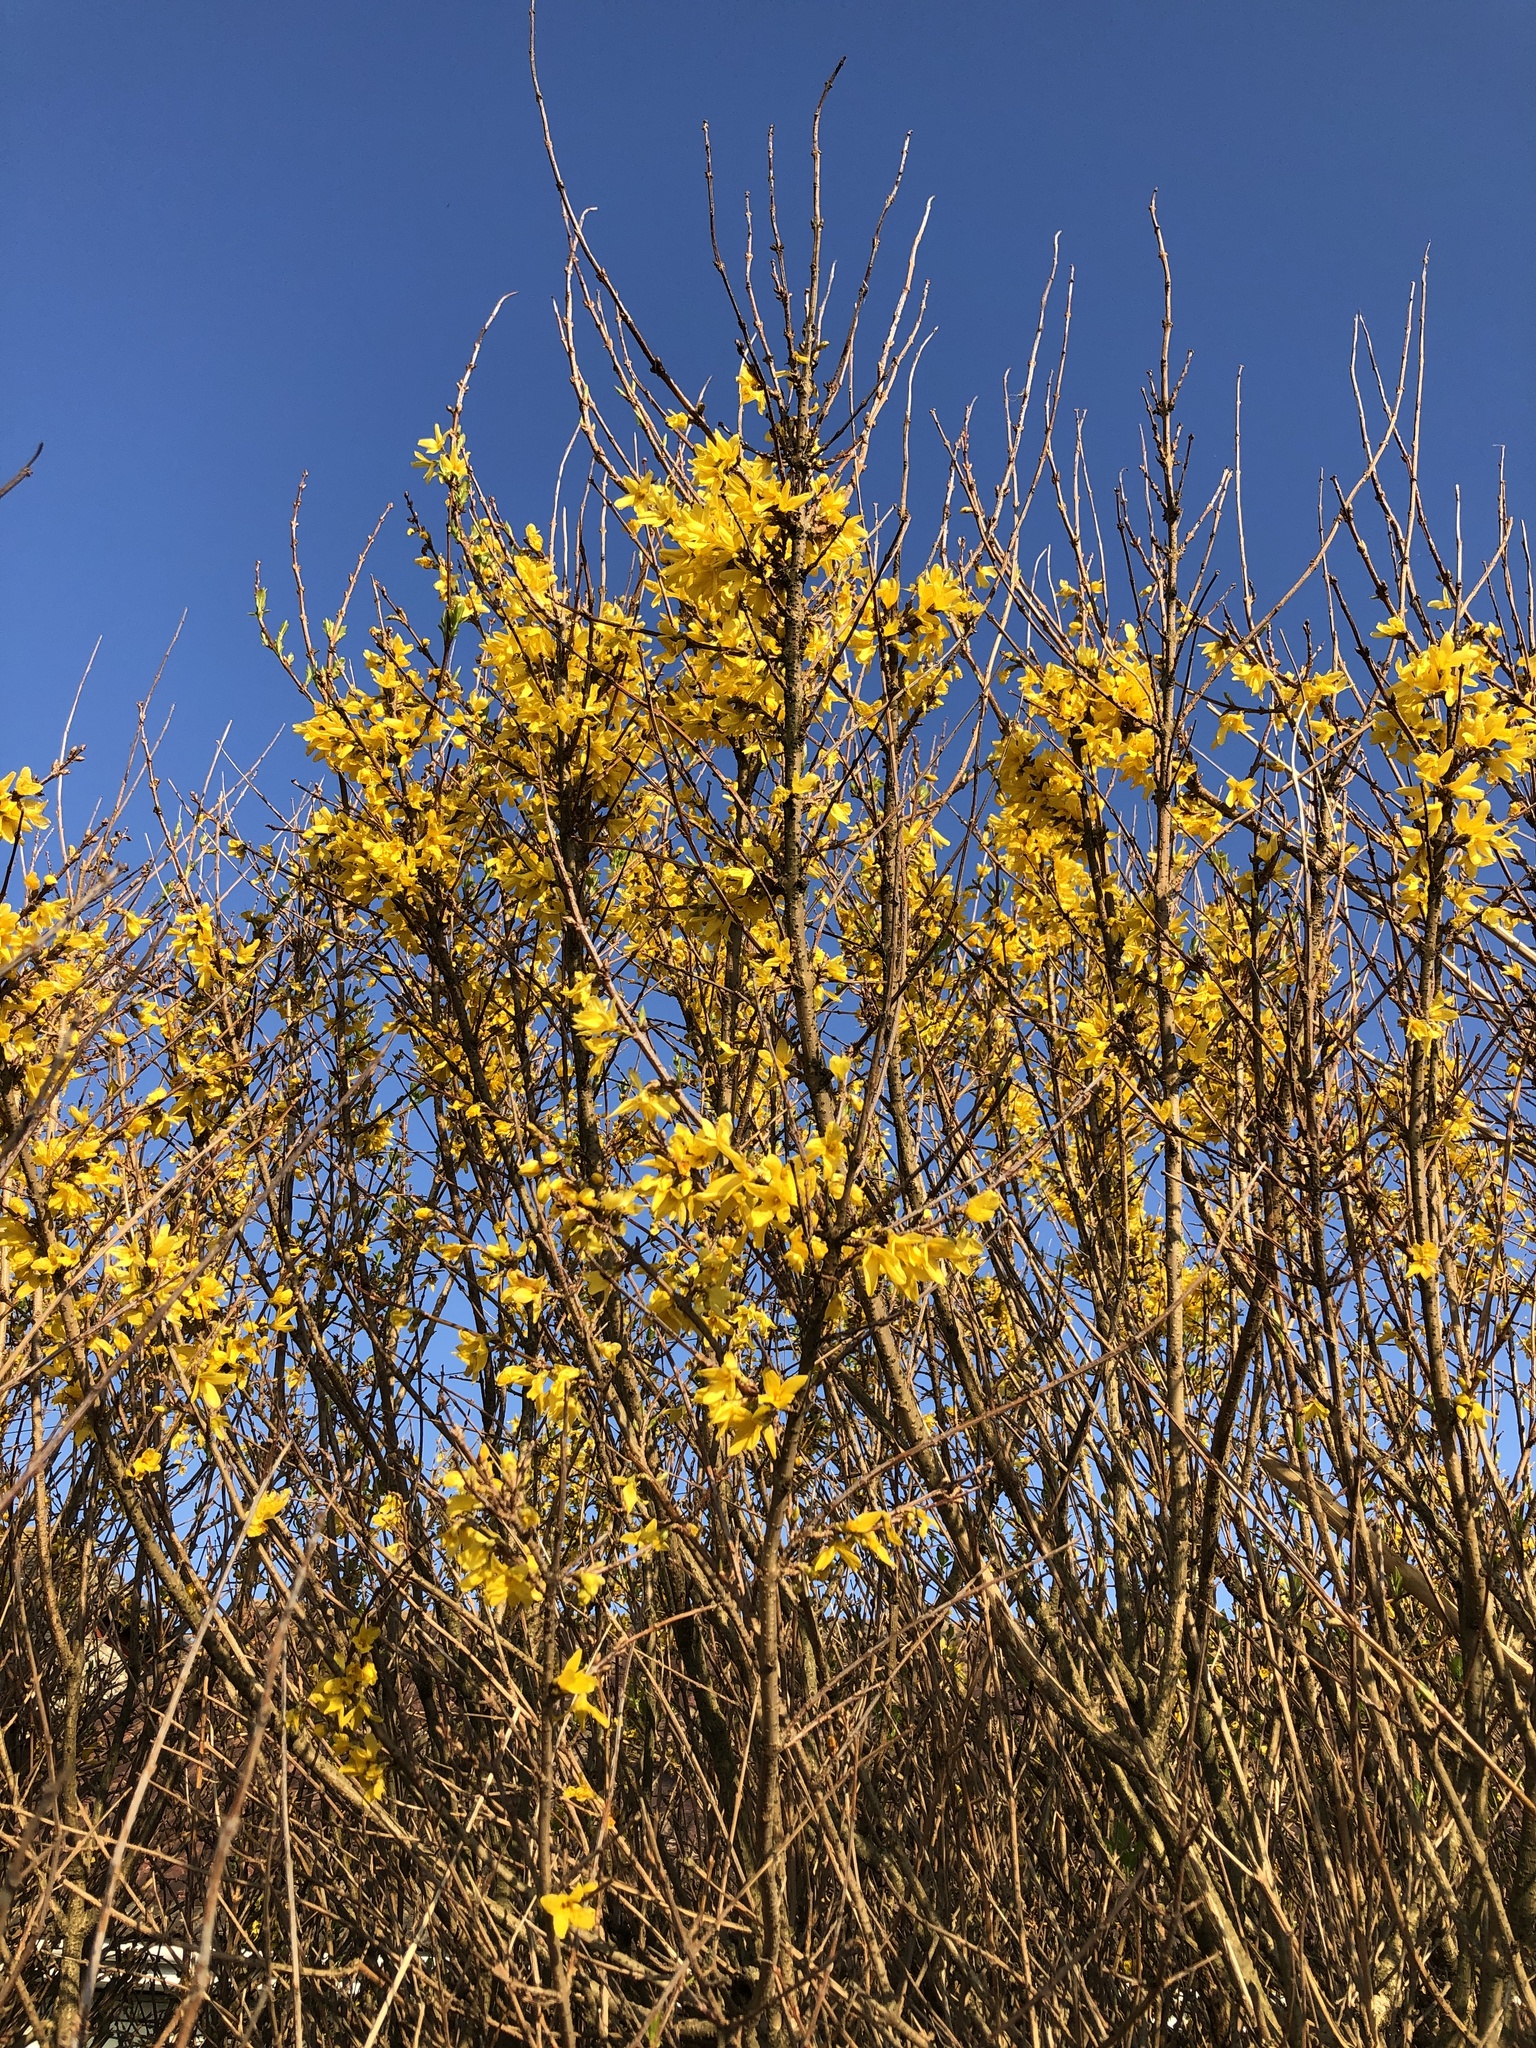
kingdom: Plantae
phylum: Tracheophyta
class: Magnoliopsida
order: Lamiales
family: Oleaceae
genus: Forsythia
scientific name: Forsythia intermedia
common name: Forsythia
